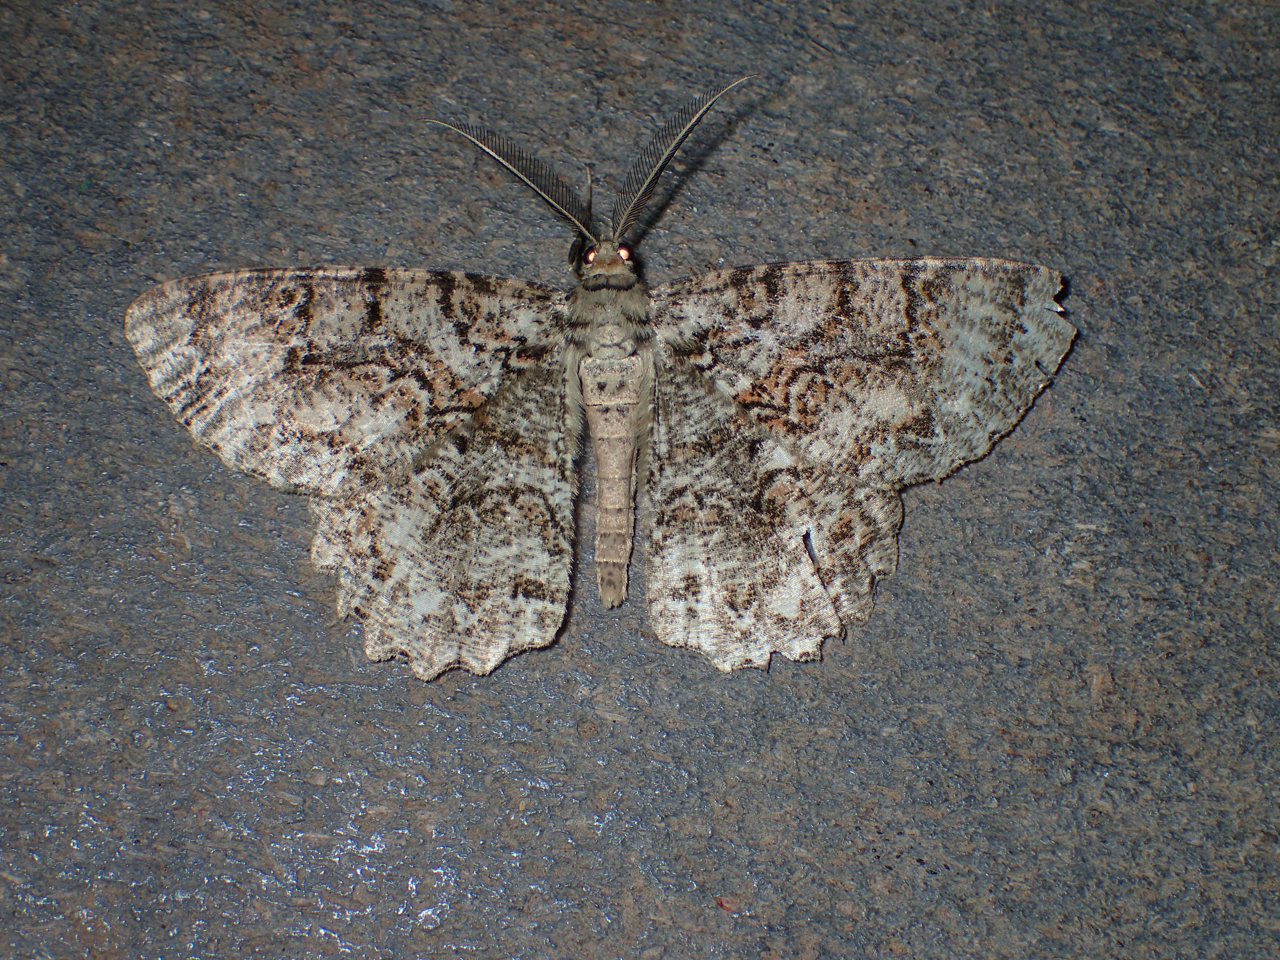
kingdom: Animalia
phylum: Arthropoda
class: Insecta
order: Lepidoptera
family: Geometridae
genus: Epimecis
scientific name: Epimecis hortaria
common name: Tulip-tree beauty
